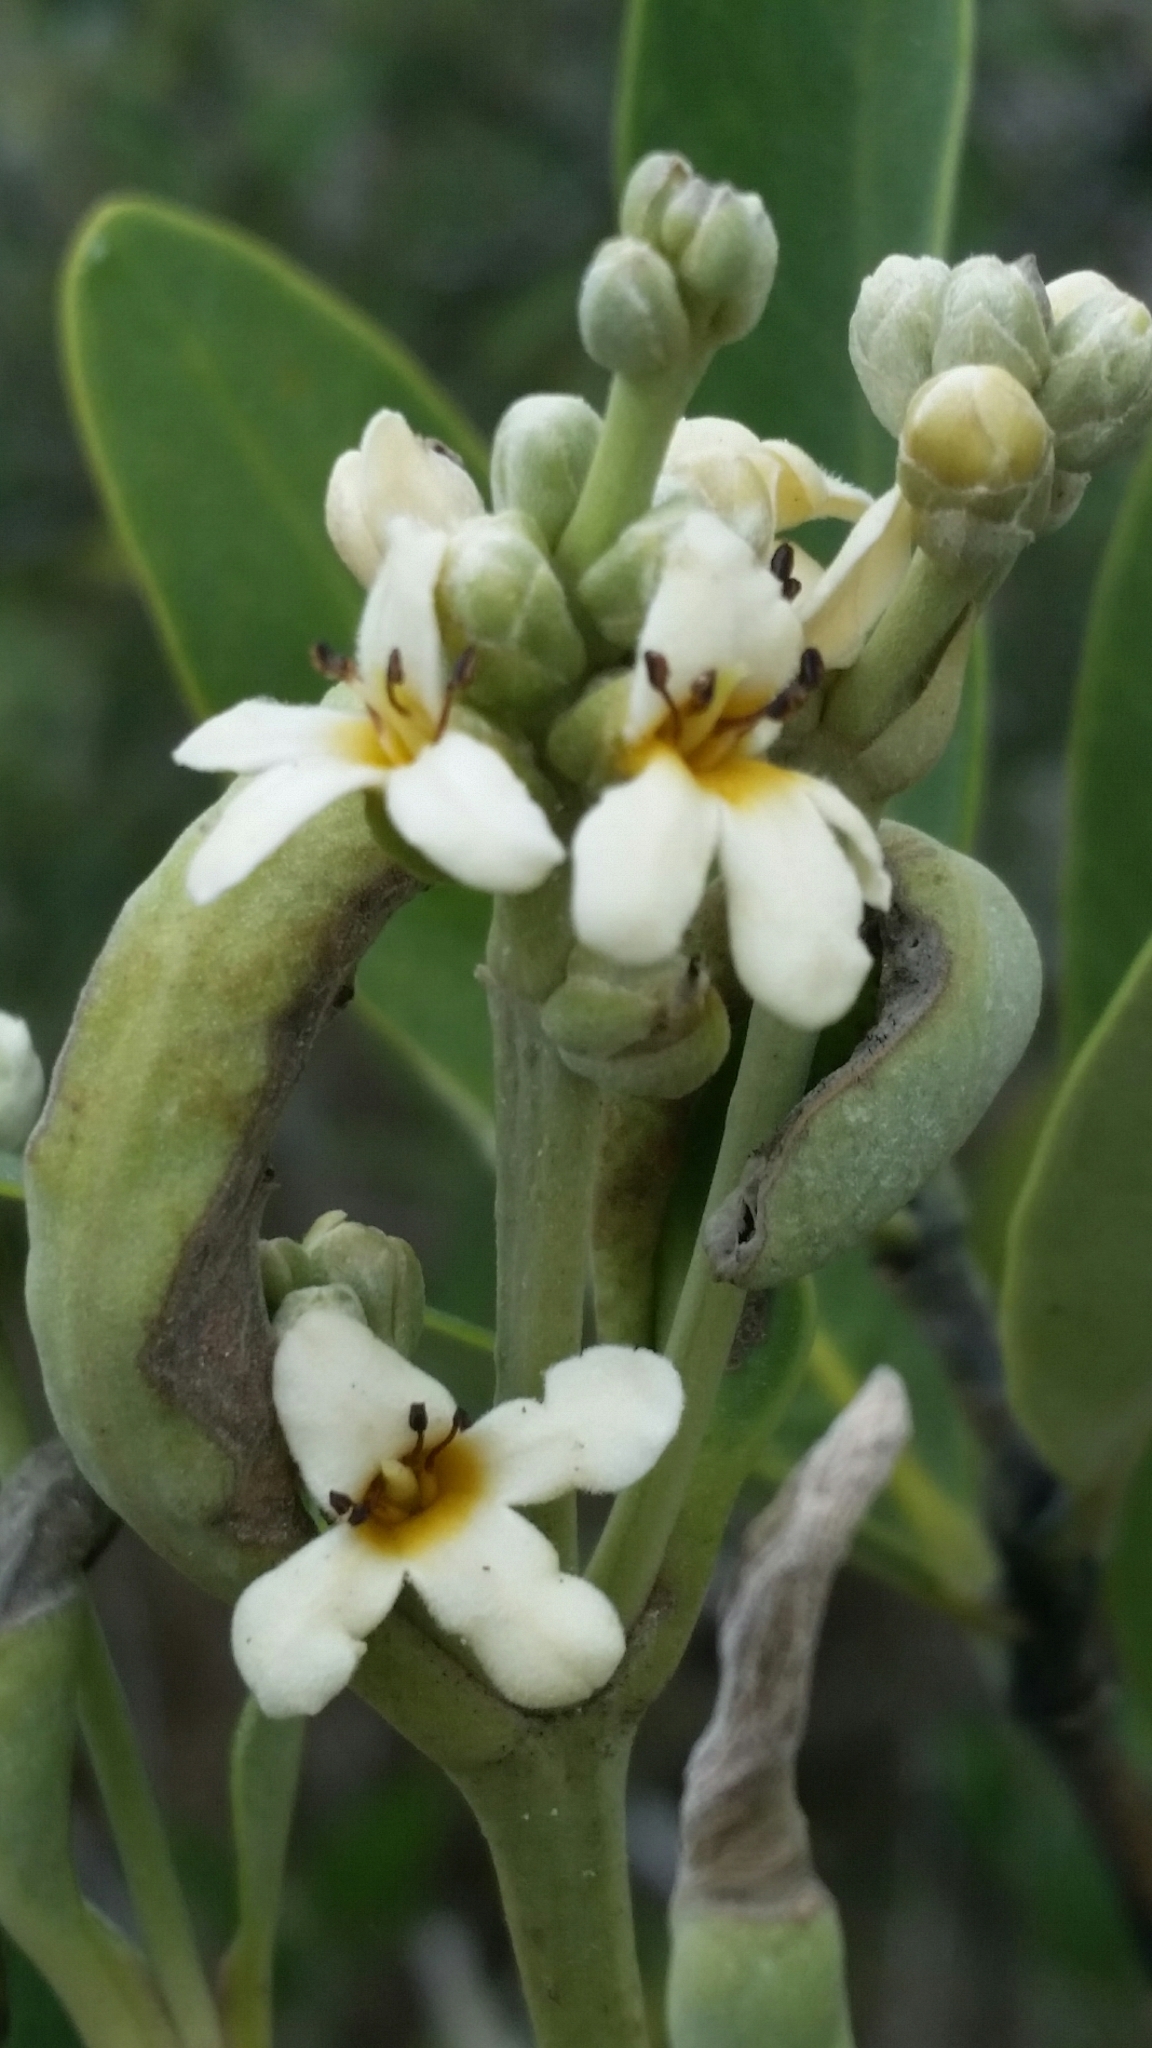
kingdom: Plantae
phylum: Tracheophyta
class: Magnoliopsida
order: Lamiales
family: Acanthaceae
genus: Avicennia
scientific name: Avicennia germinans
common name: Black mangrove
